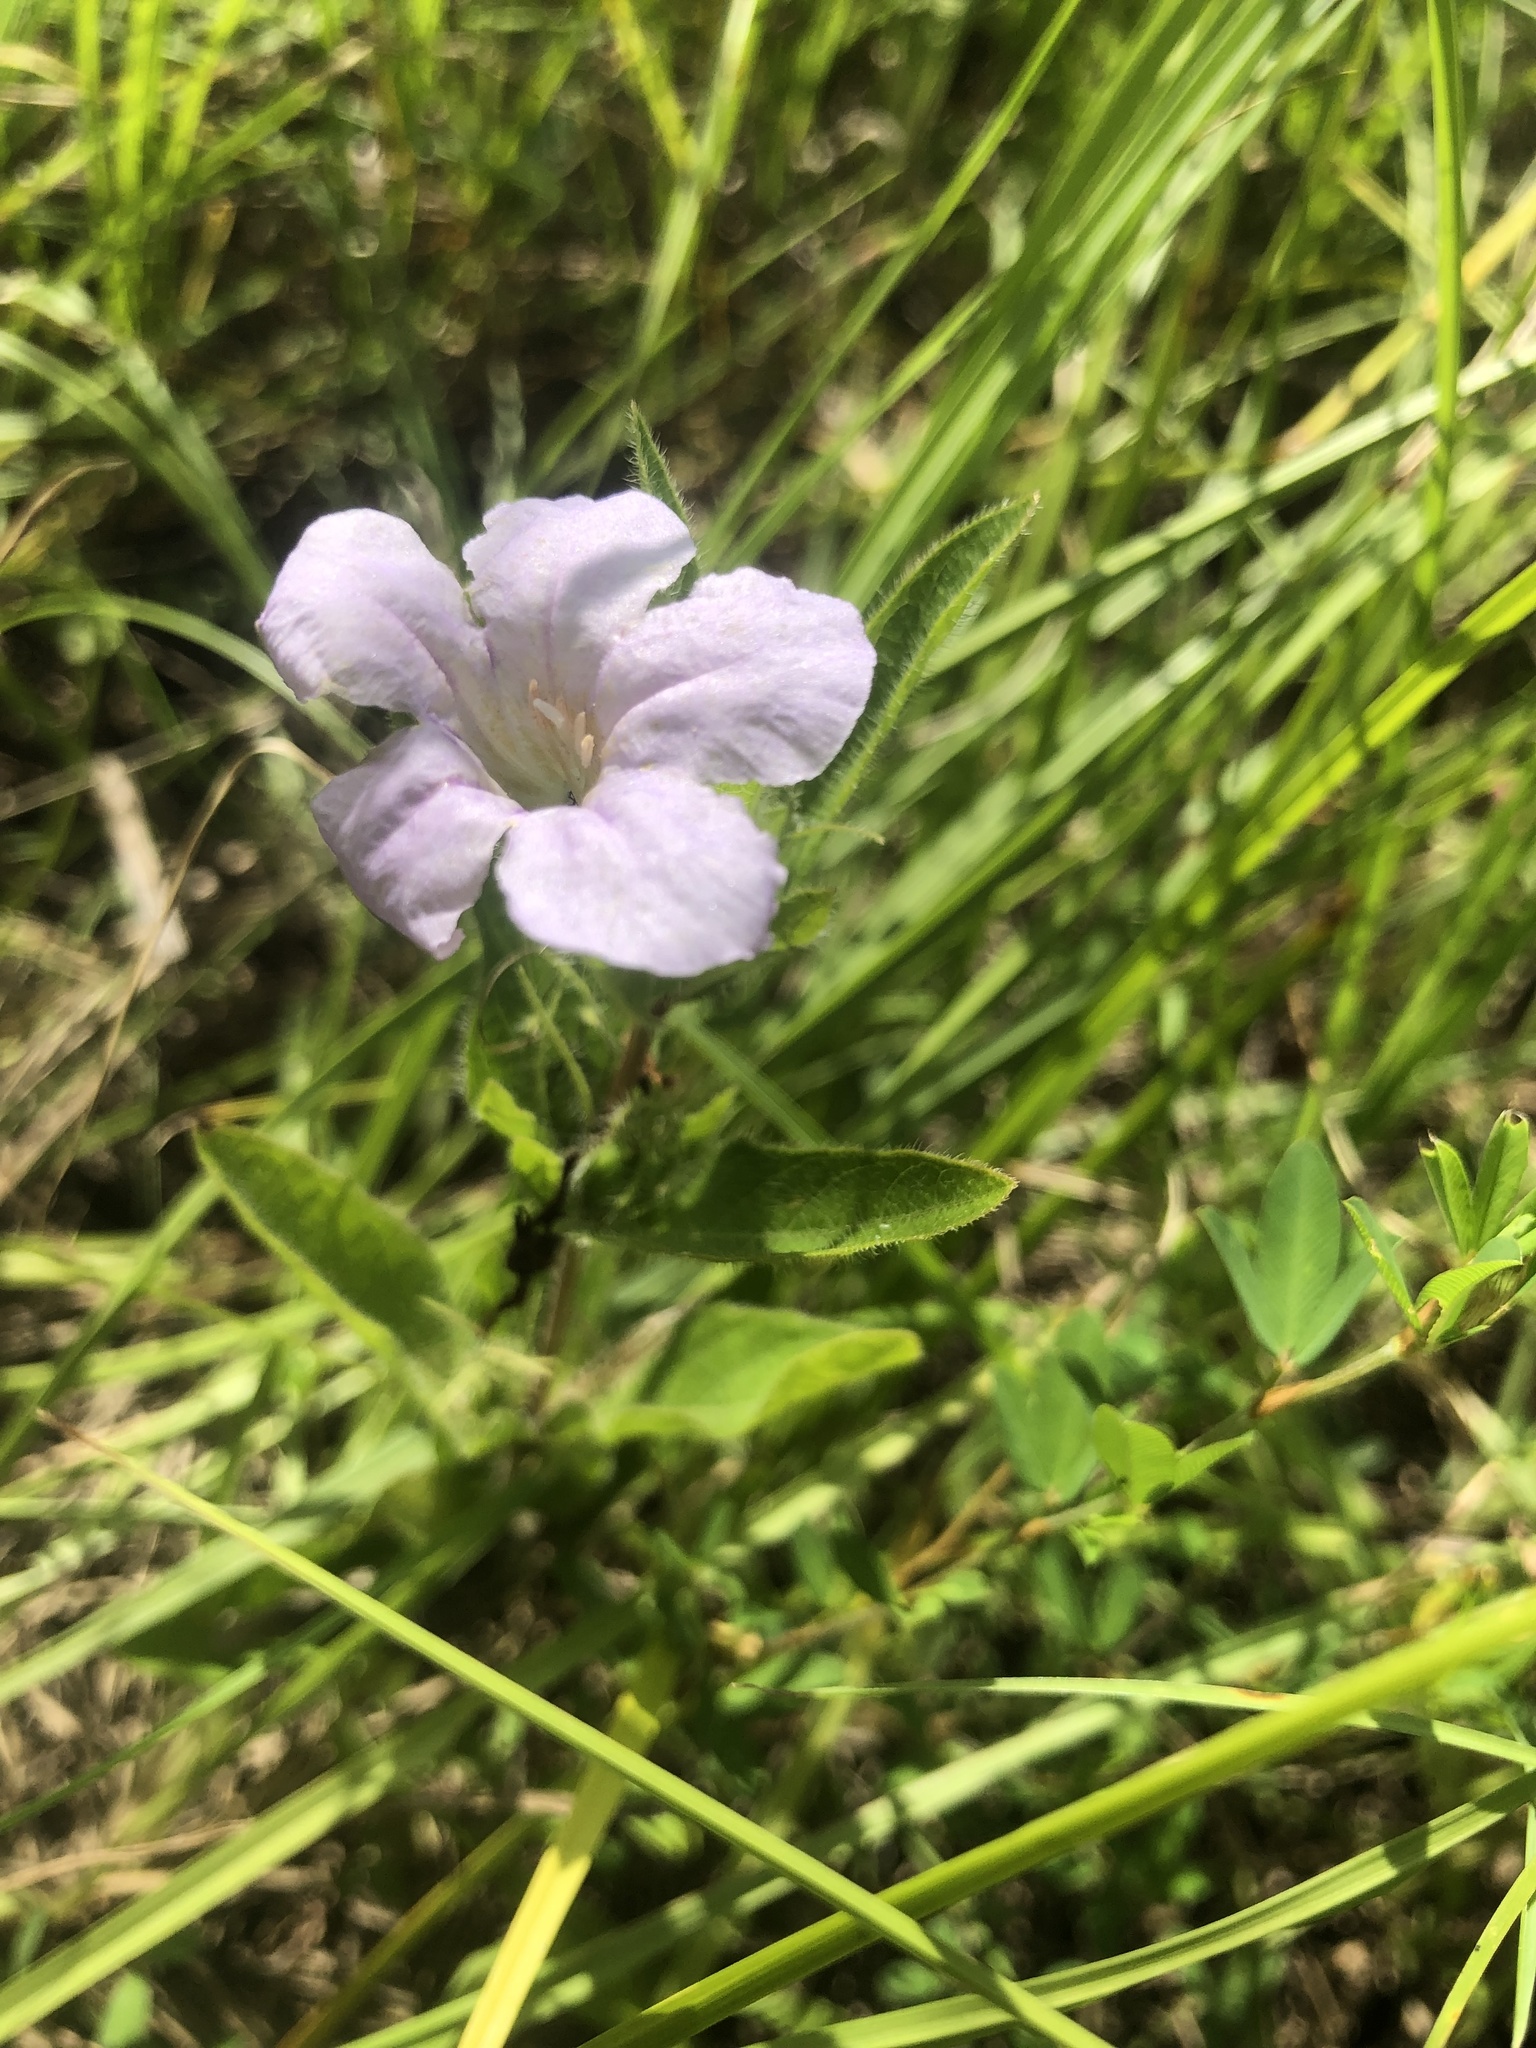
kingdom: Plantae
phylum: Tracheophyta
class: Magnoliopsida
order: Lamiales
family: Acanthaceae
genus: Ruellia
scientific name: Ruellia humilis
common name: Fringe-leaf ruellia
